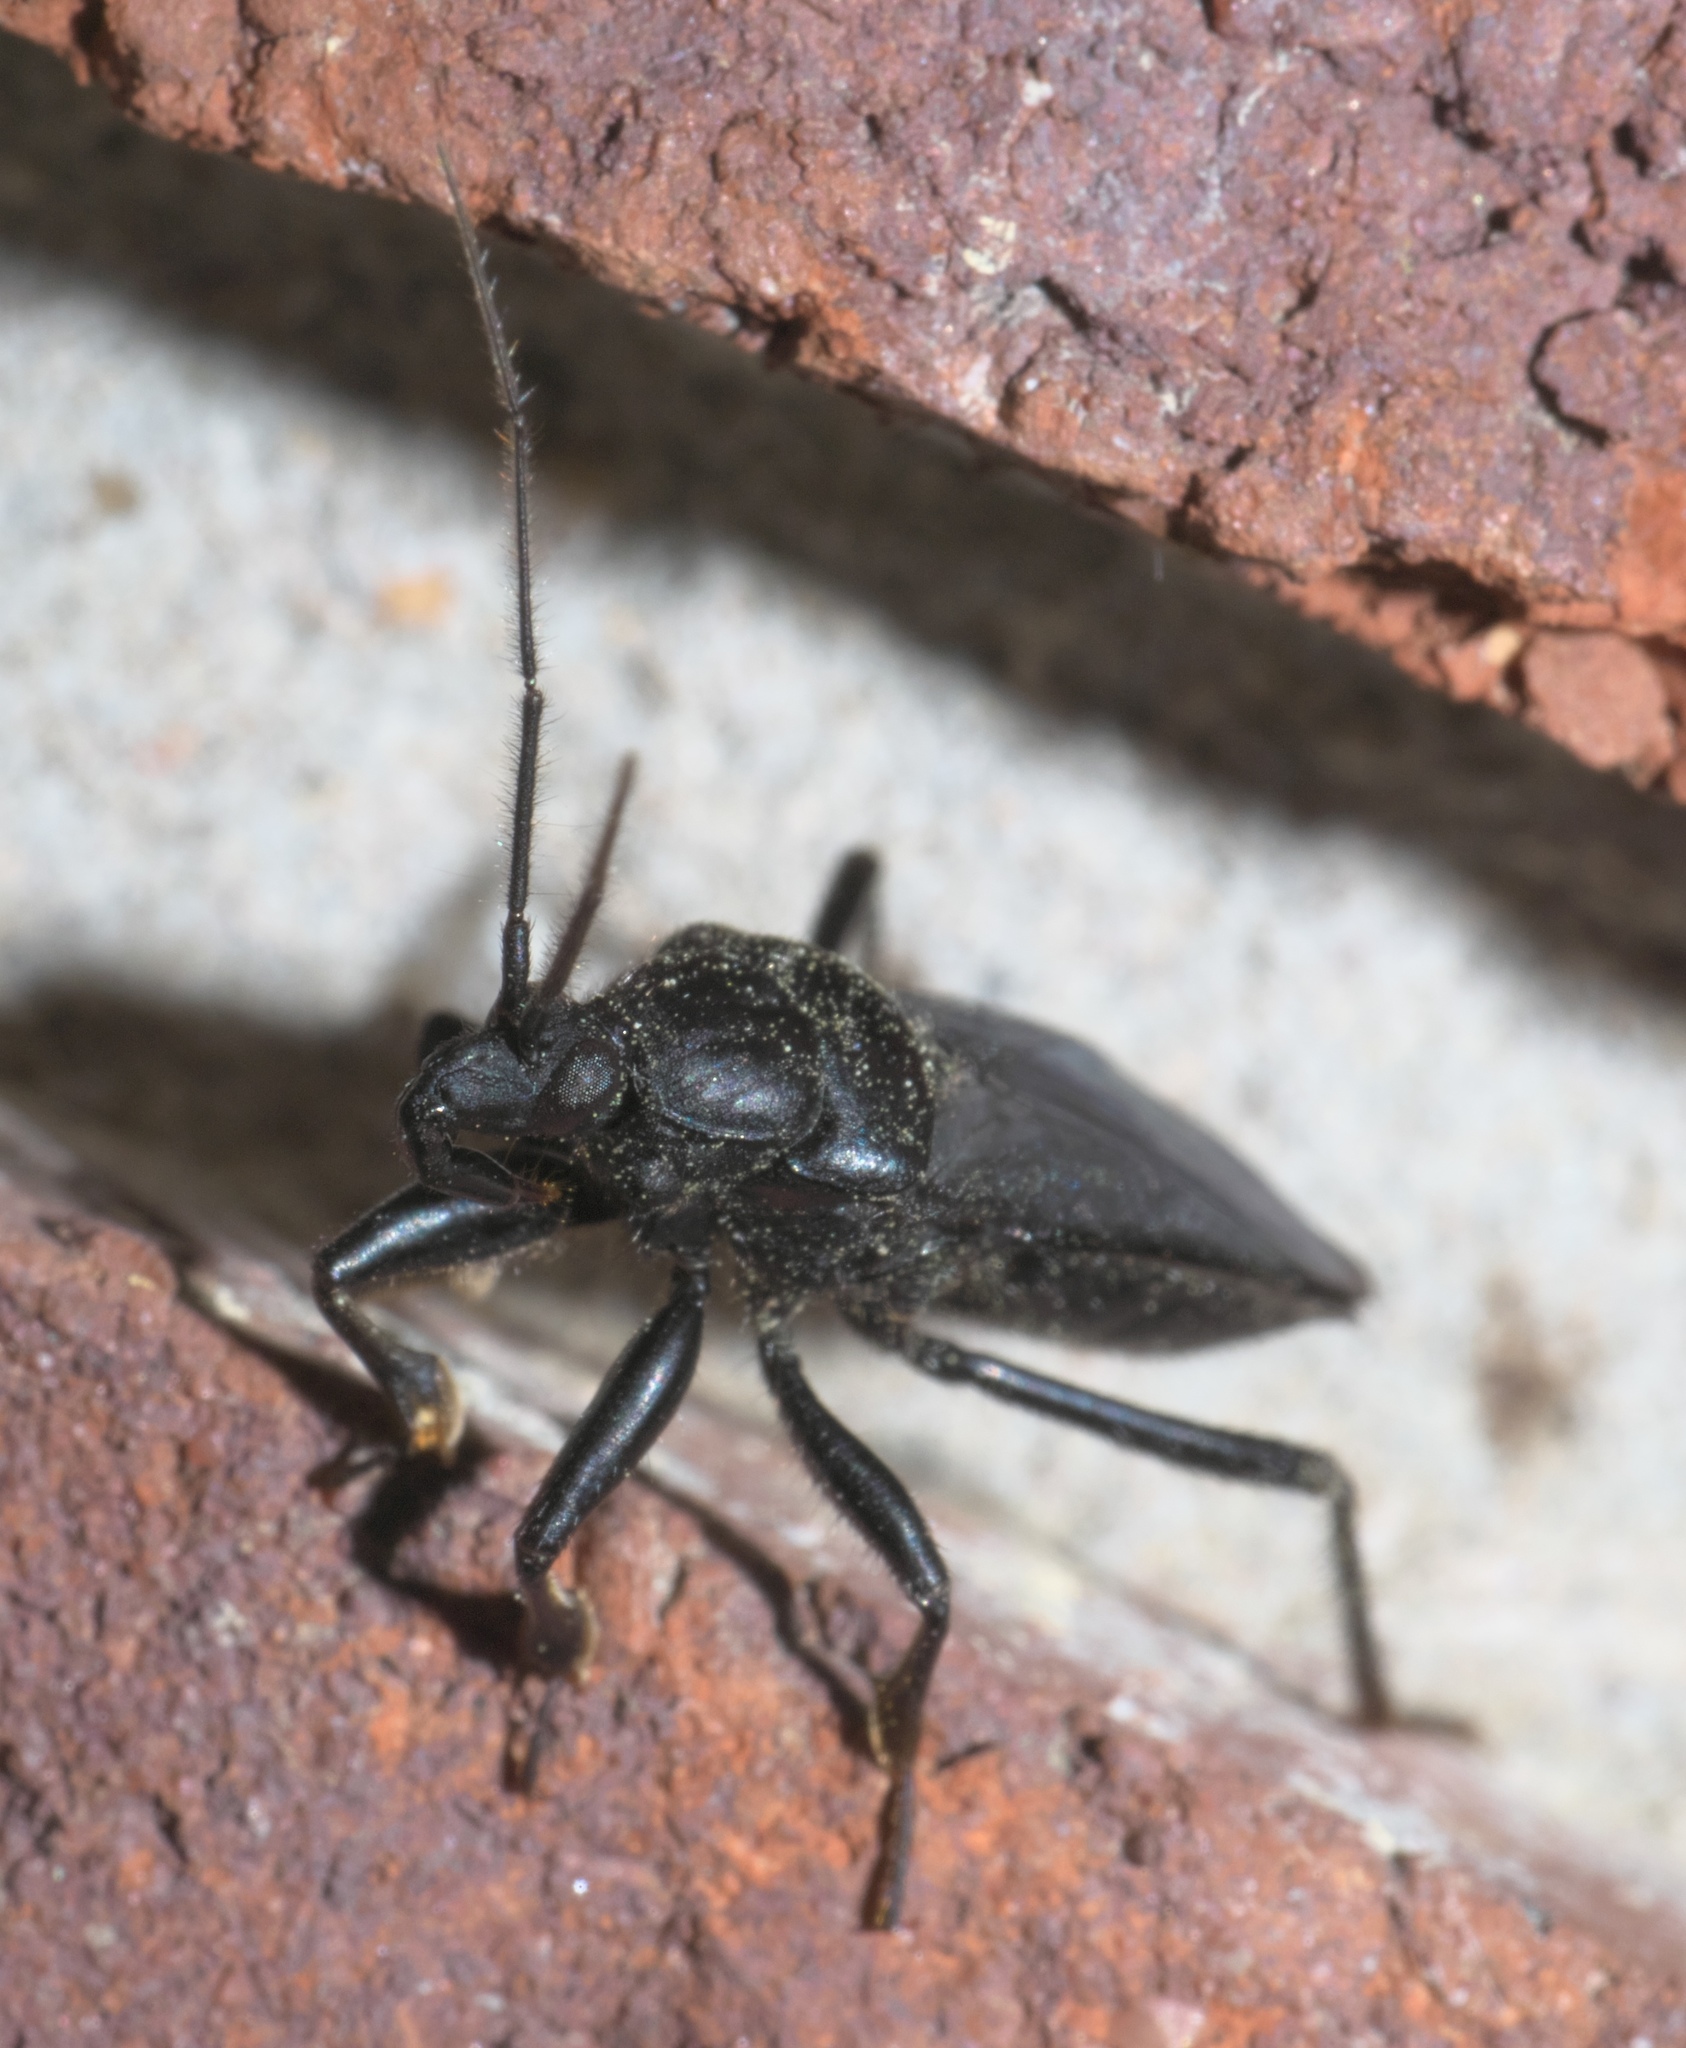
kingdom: Animalia
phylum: Arthropoda
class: Insecta
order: Hemiptera
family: Reduviidae
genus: Melanolestes
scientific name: Melanolestes picipes
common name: Assassin bug
